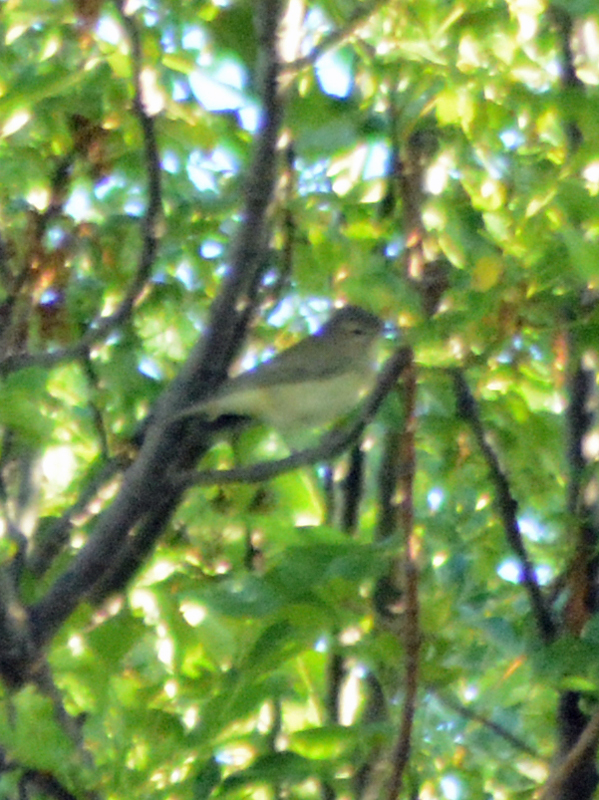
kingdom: Animalia
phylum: Chordata
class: Aves
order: Passeriformes
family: Vireonidae
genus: Vireo
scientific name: Vireo gilvus
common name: Warbling vireo
